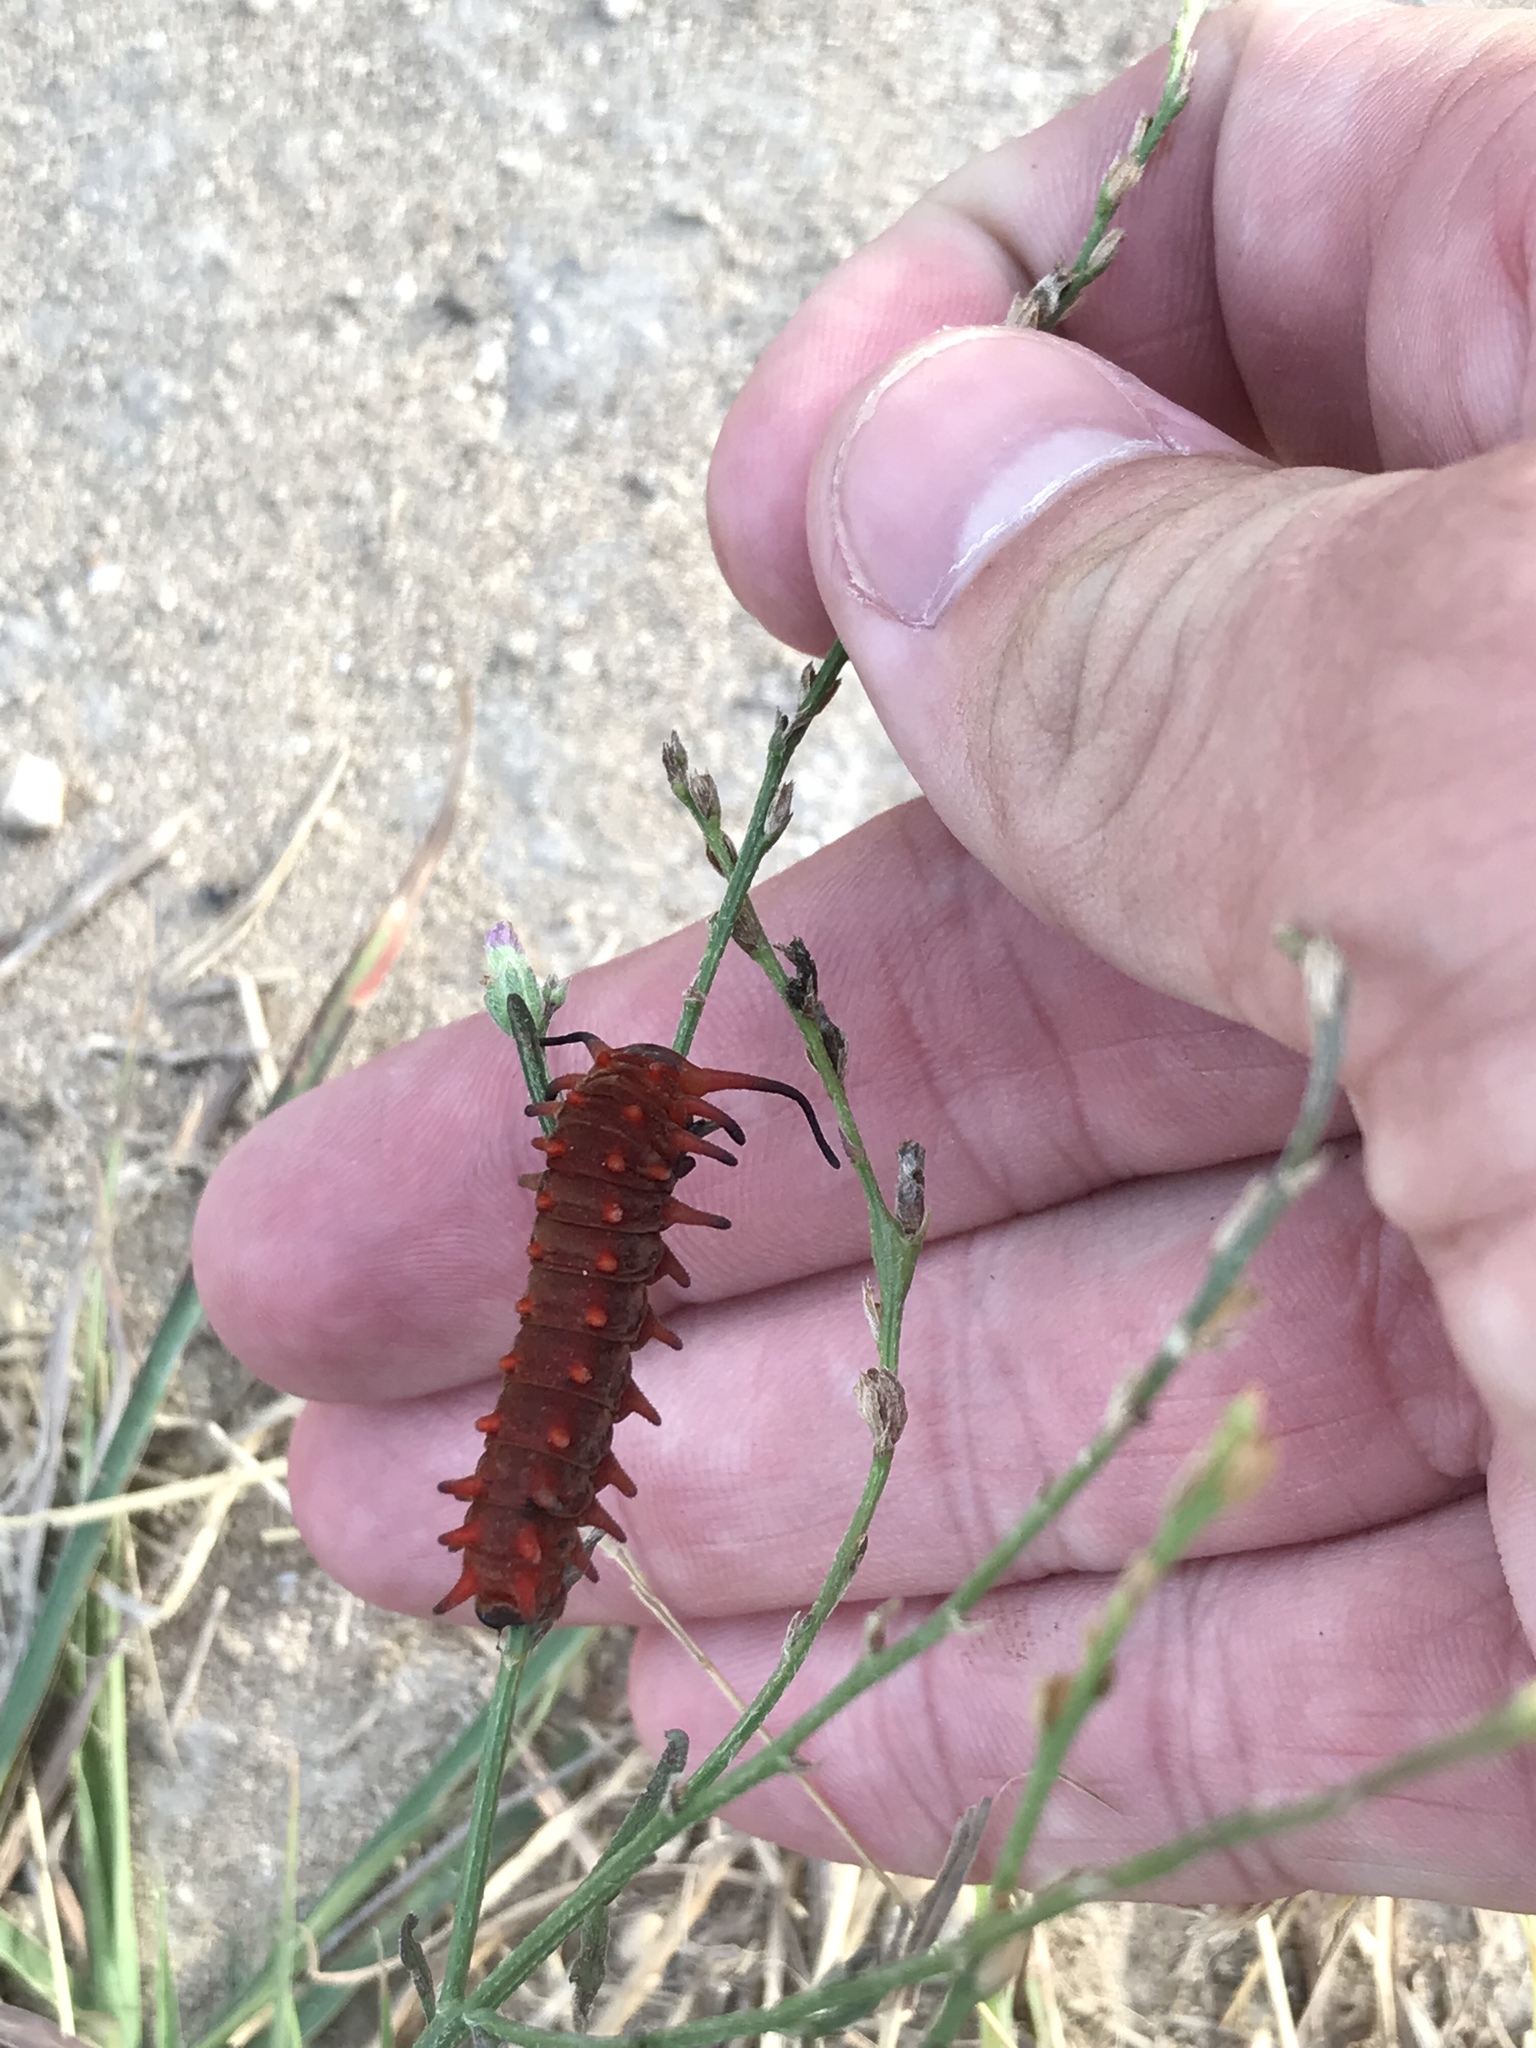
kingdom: Animalia
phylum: Arthropoda
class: Insecta
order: Lepidoptera
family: Papilionidae
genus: Battus
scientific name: Battus philenor
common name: Pipevine swallowtail
